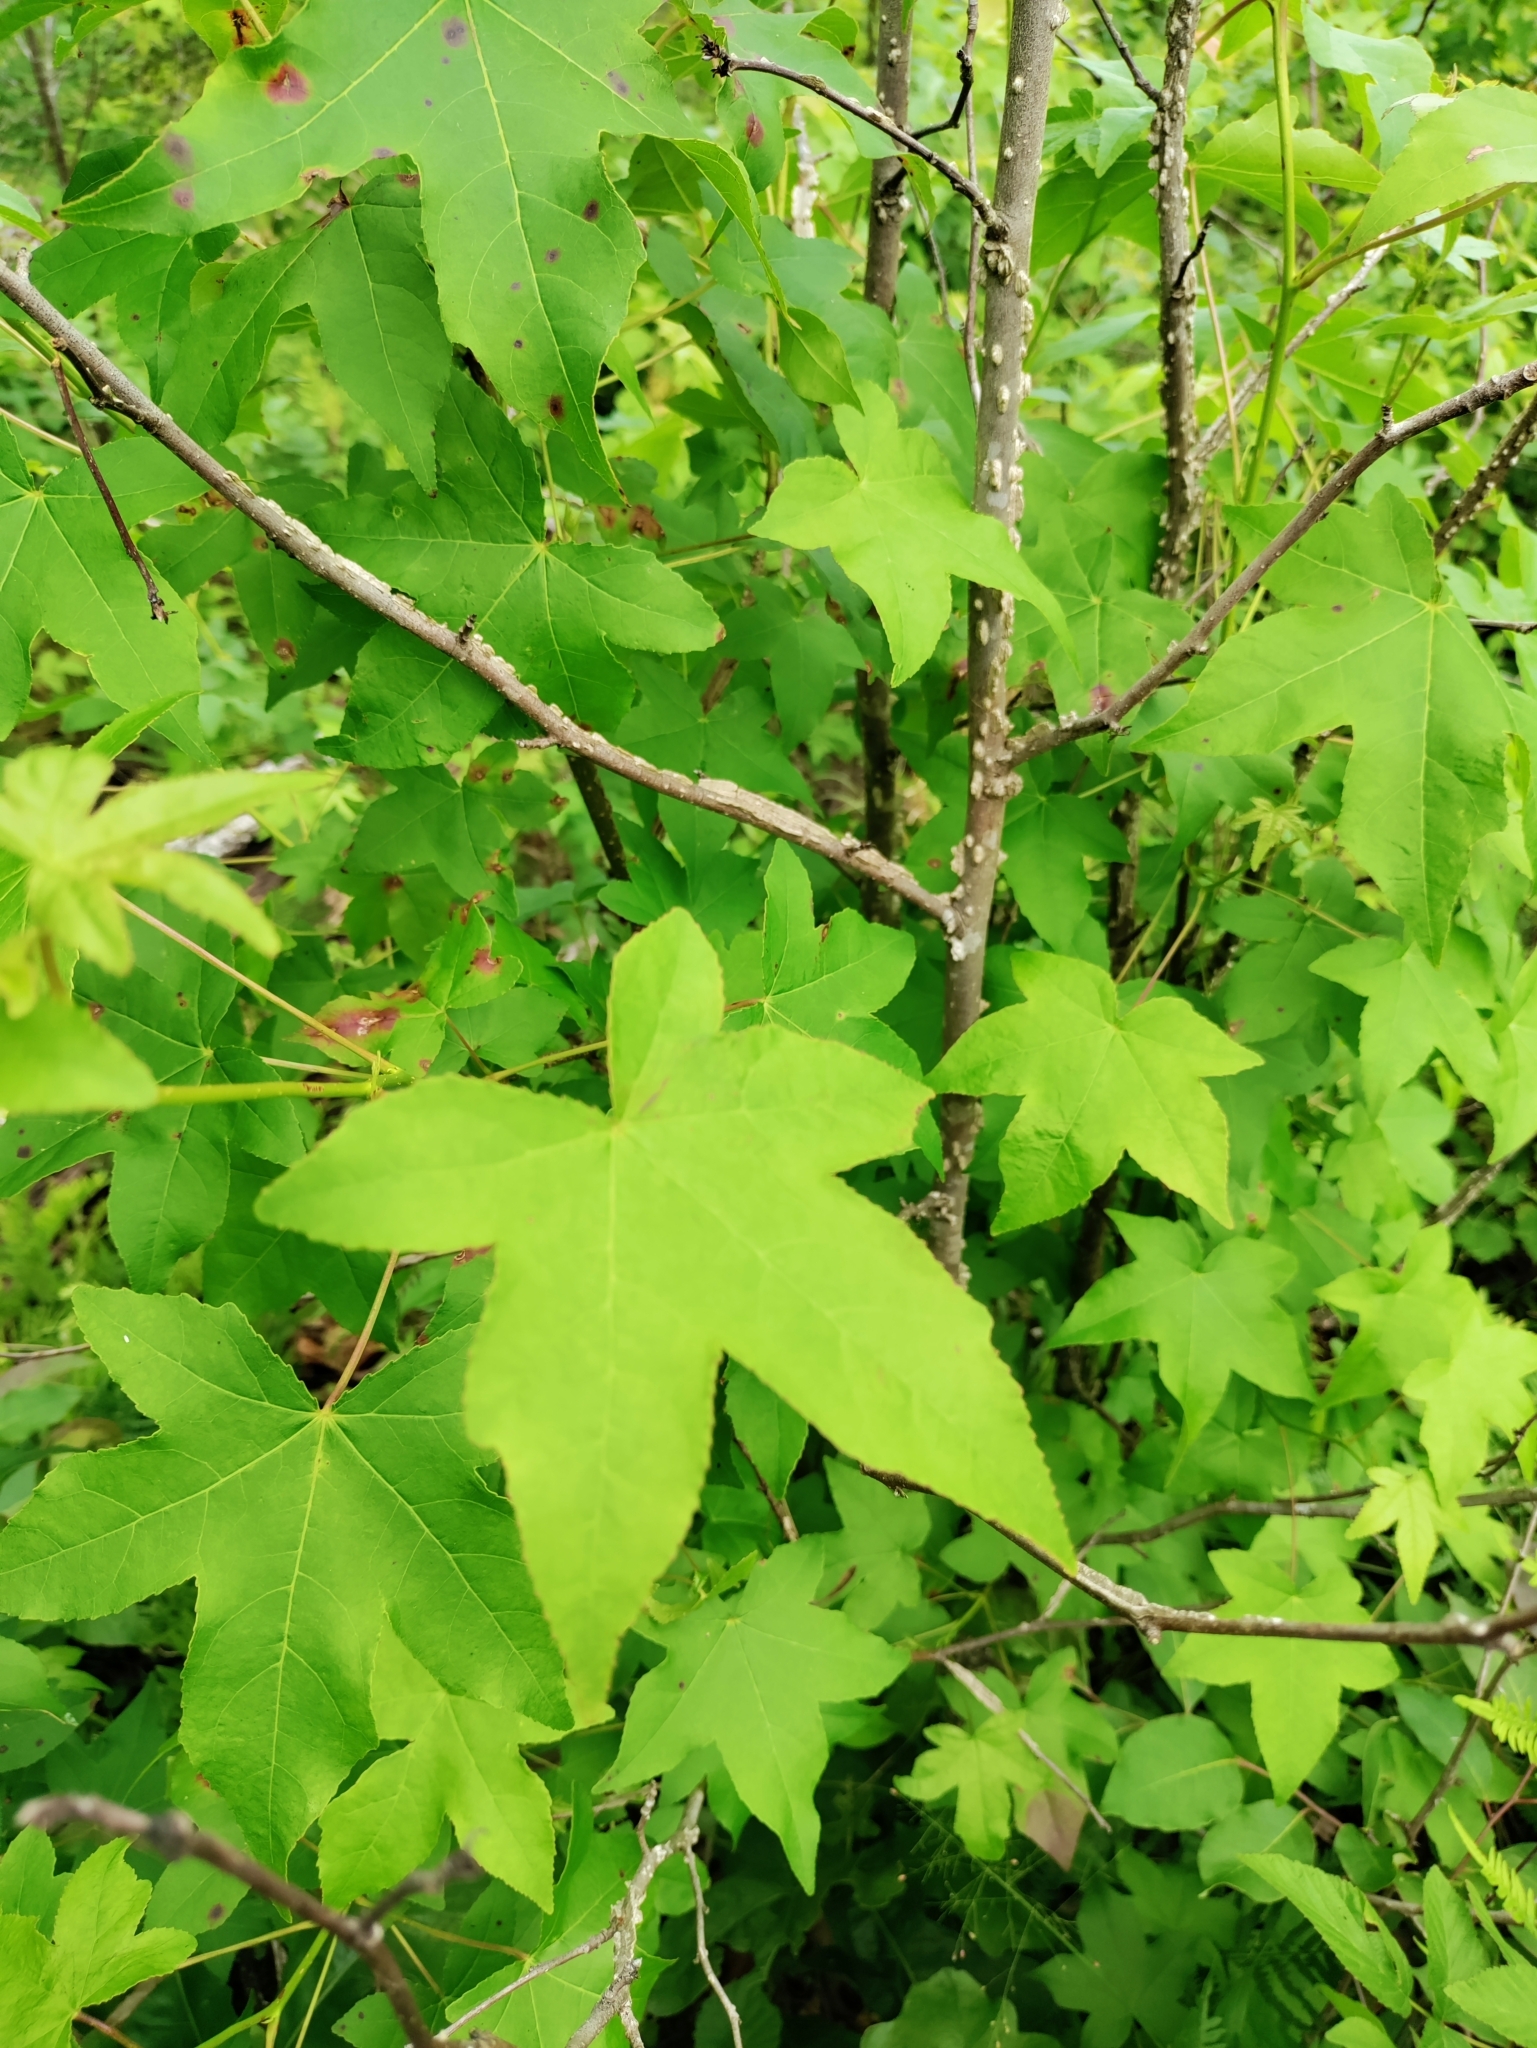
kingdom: Plantae
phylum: Tracheophyta
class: Magnoliopsida
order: Saxifragales
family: Altingiaceae
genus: Liquidambar
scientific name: Liquidambar styraciflua
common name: Sweet gum
